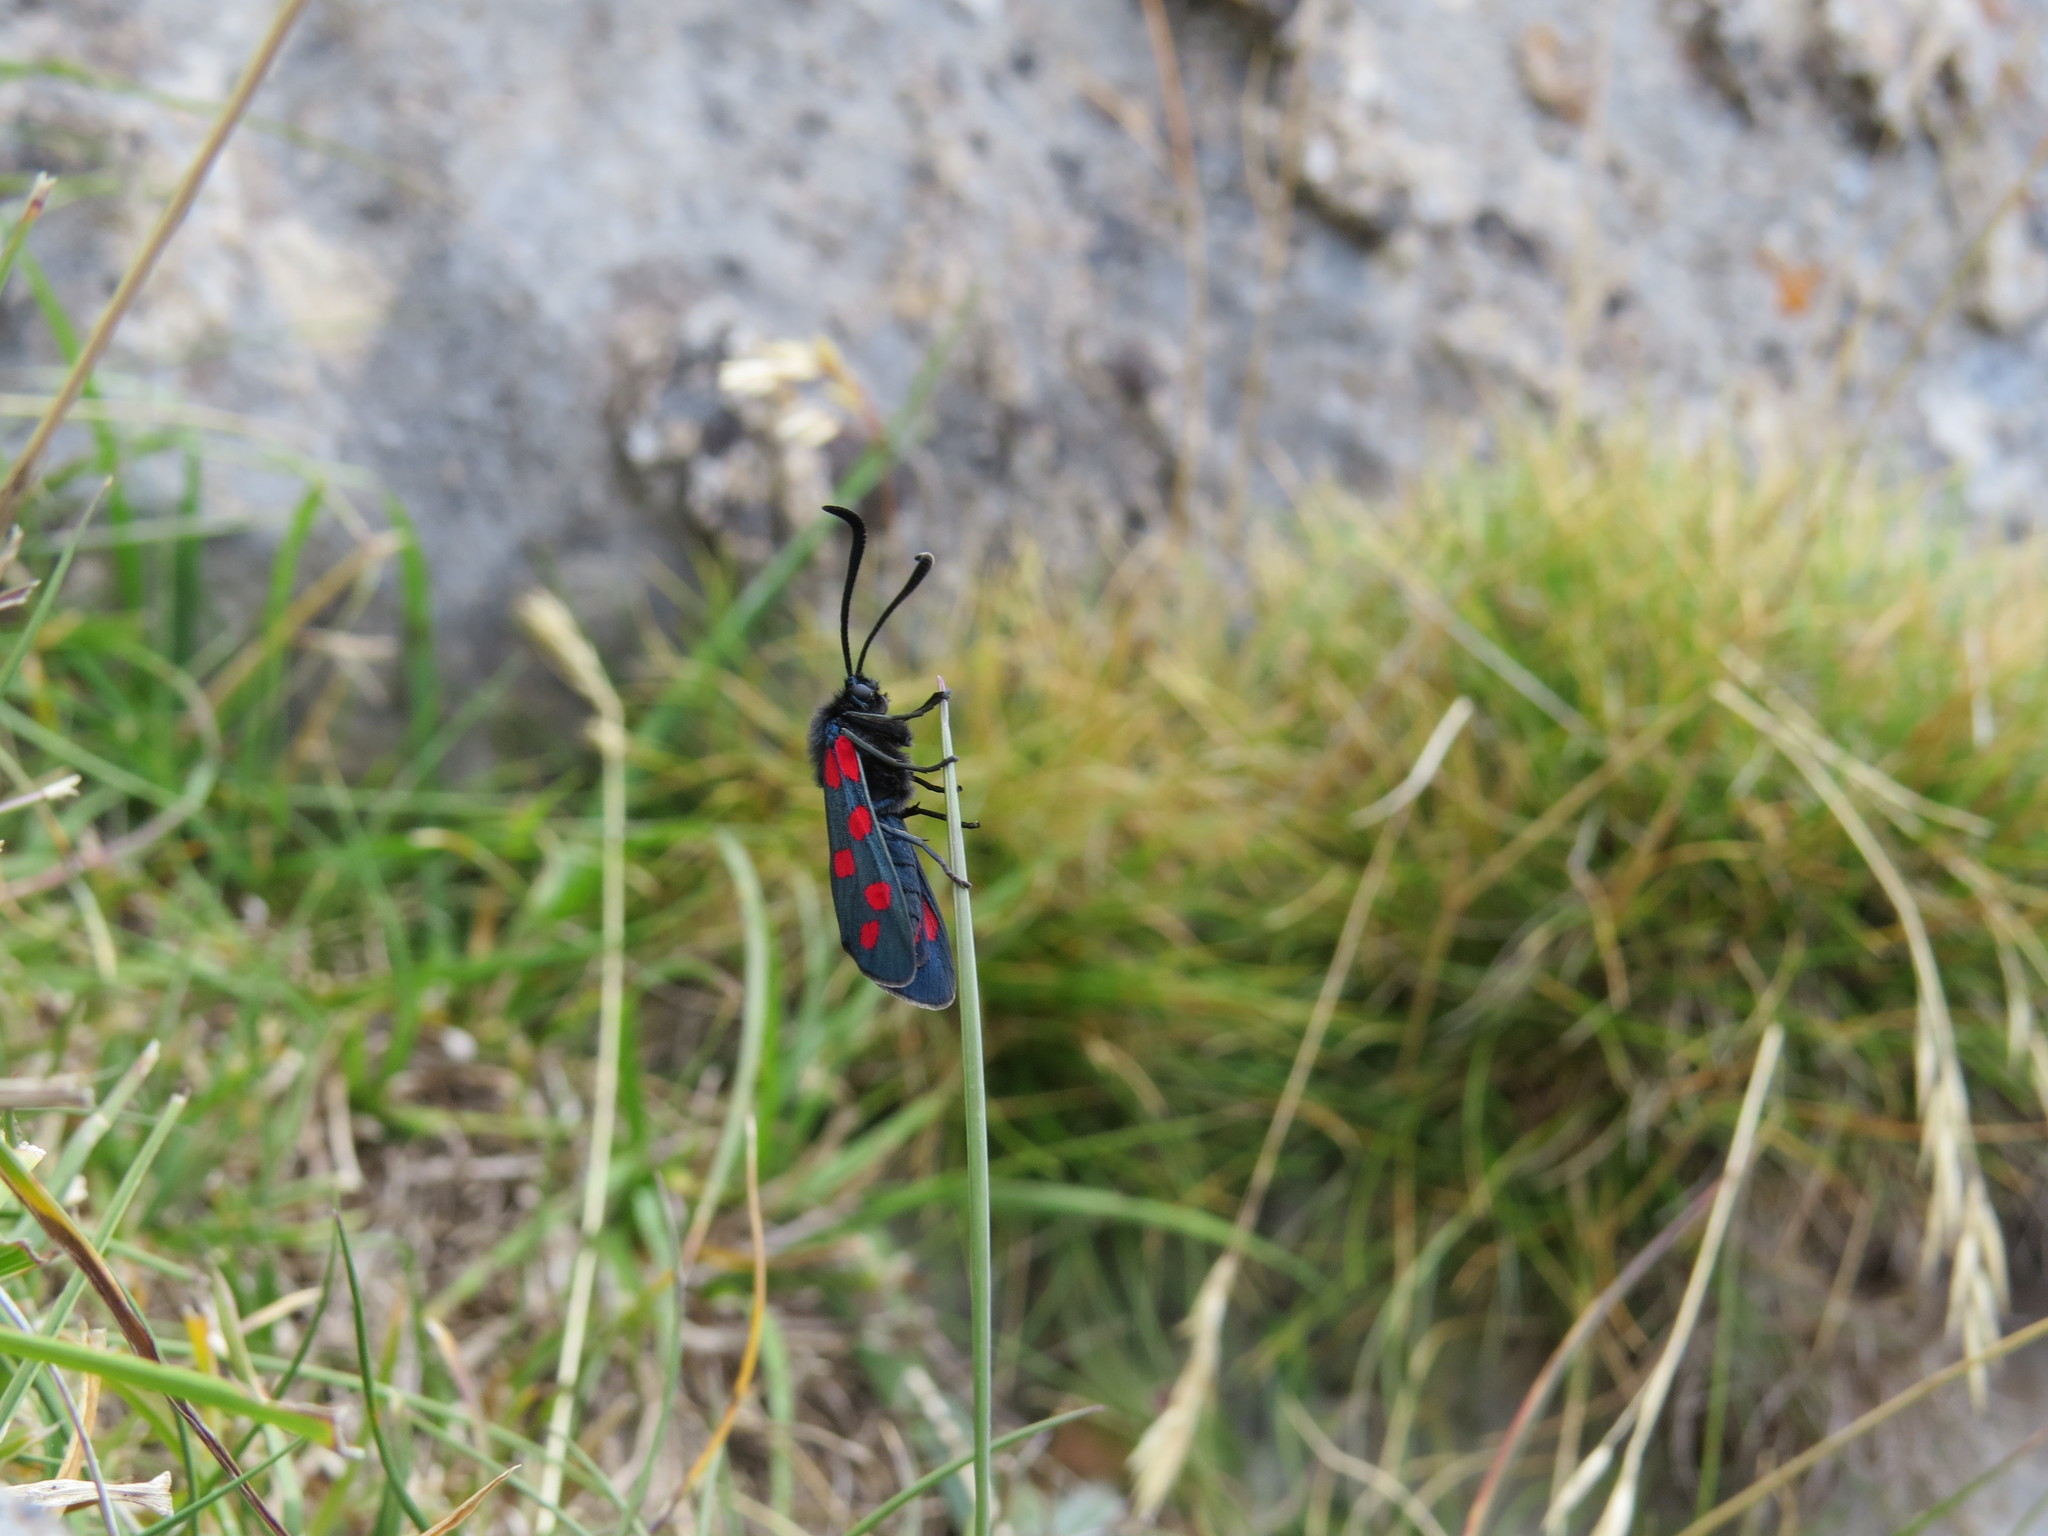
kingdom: Animalia
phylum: Arthropoda
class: Insecta
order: Lepidoptera
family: Zygaenidae
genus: Zygaena
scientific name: Zygaena filipendulae
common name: Six-spot burnet
